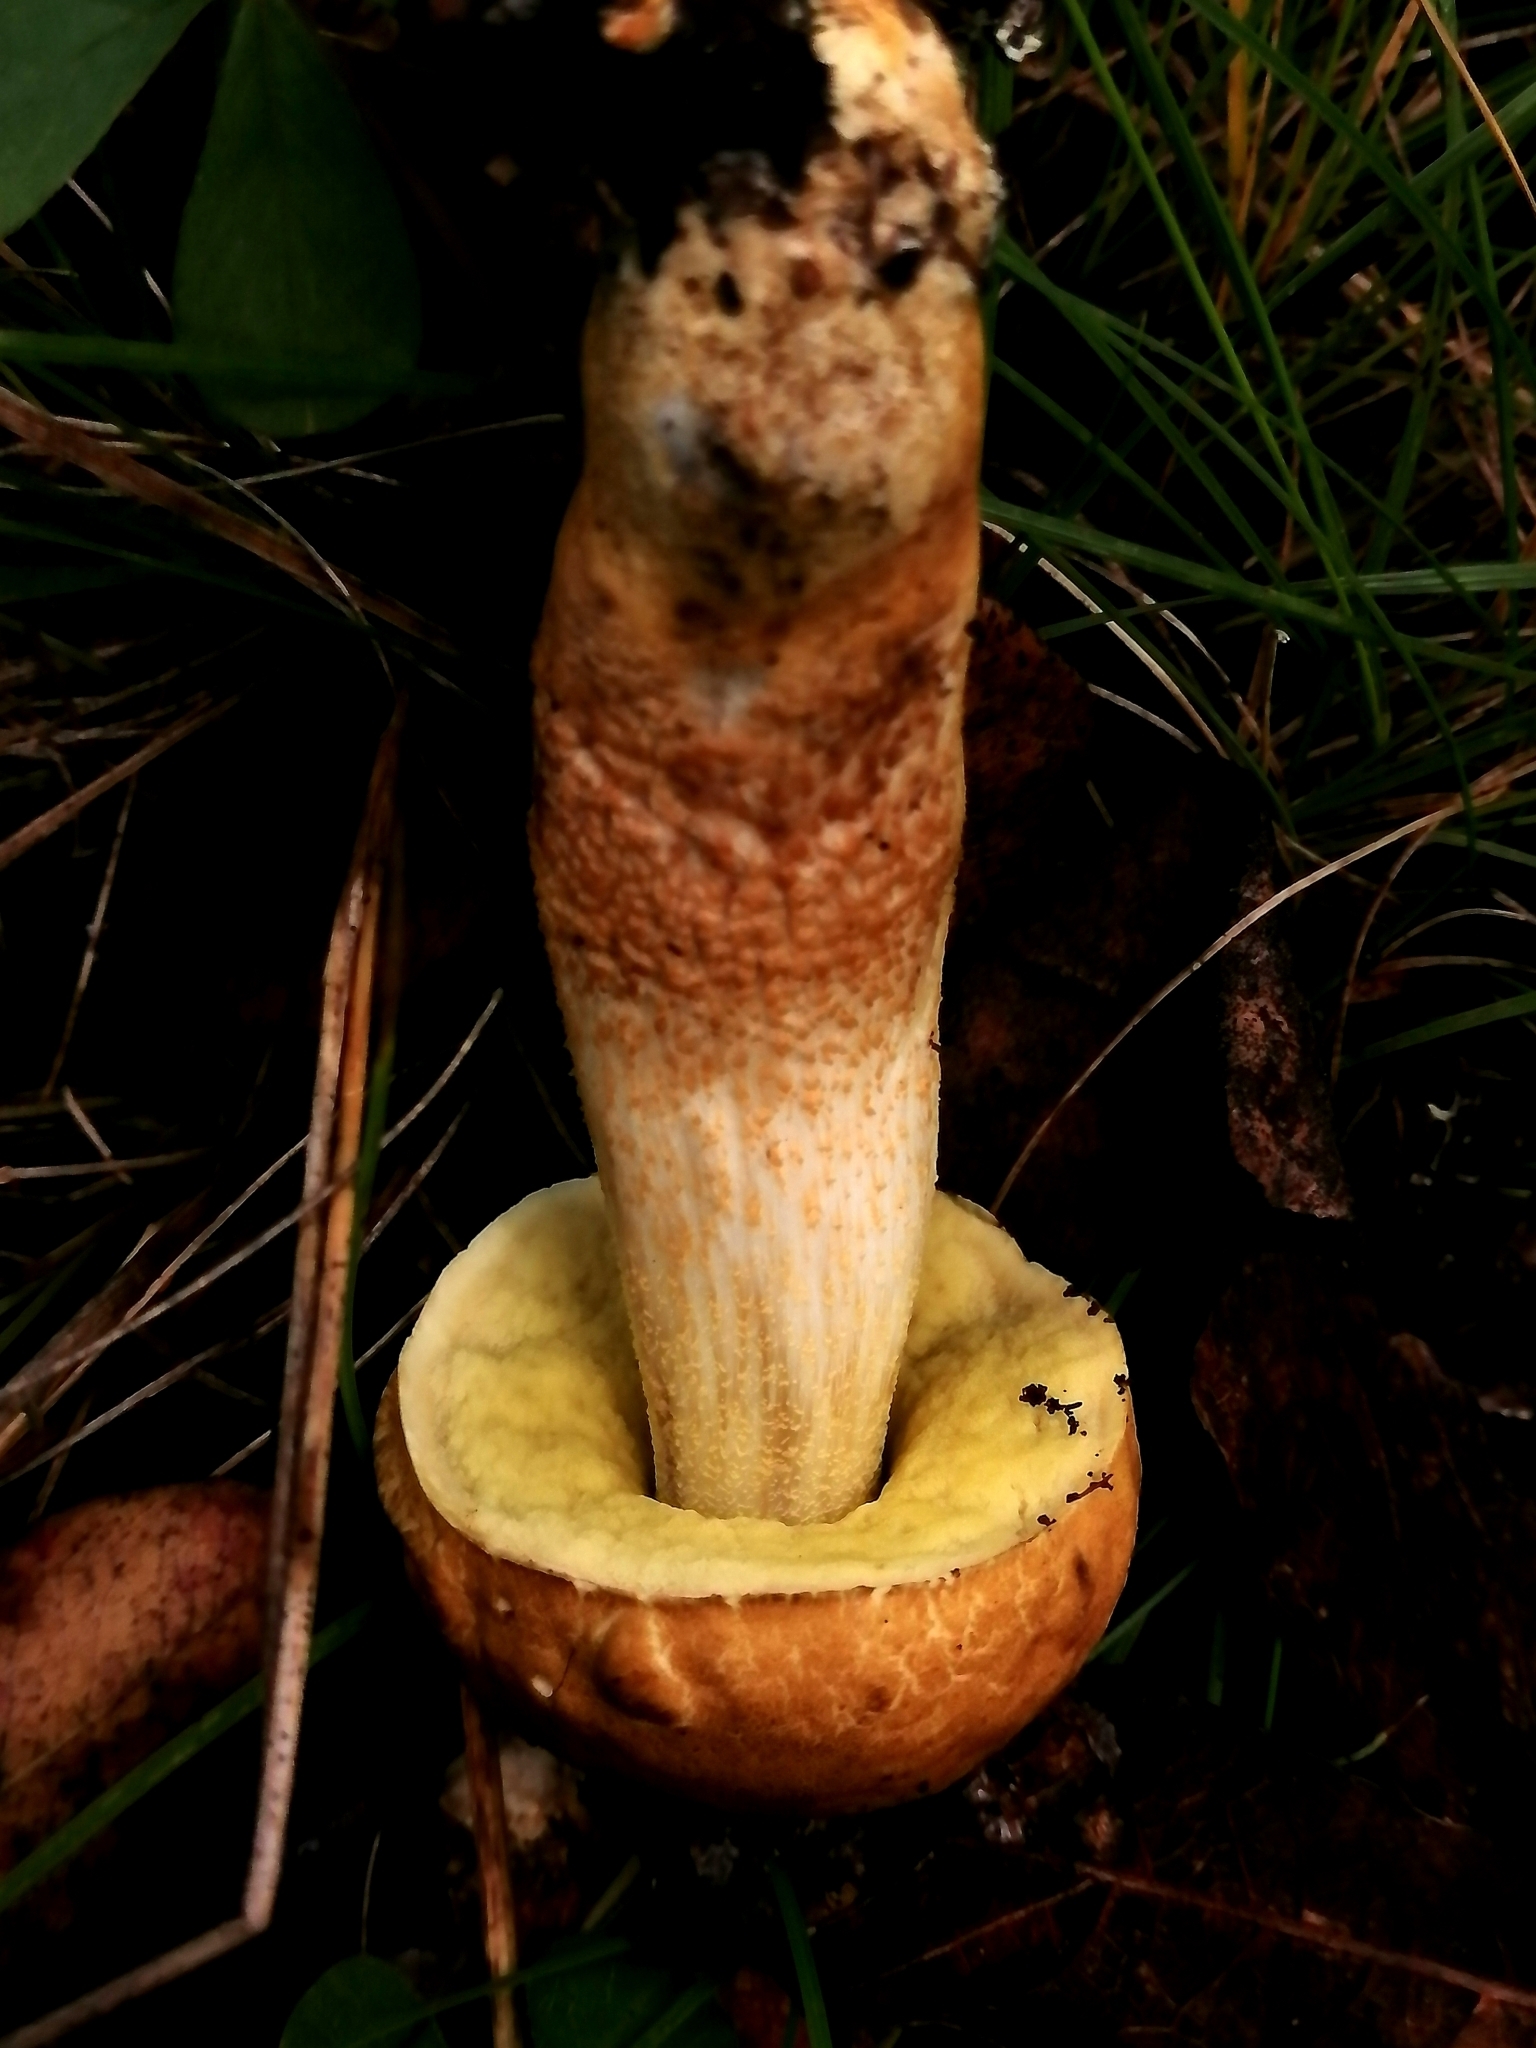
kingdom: Fungi
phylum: Basidiomycota
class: Agaricomycetes
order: Boletales
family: Boletaceae
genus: Leccinellum
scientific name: Leccinellum rugosiceps
